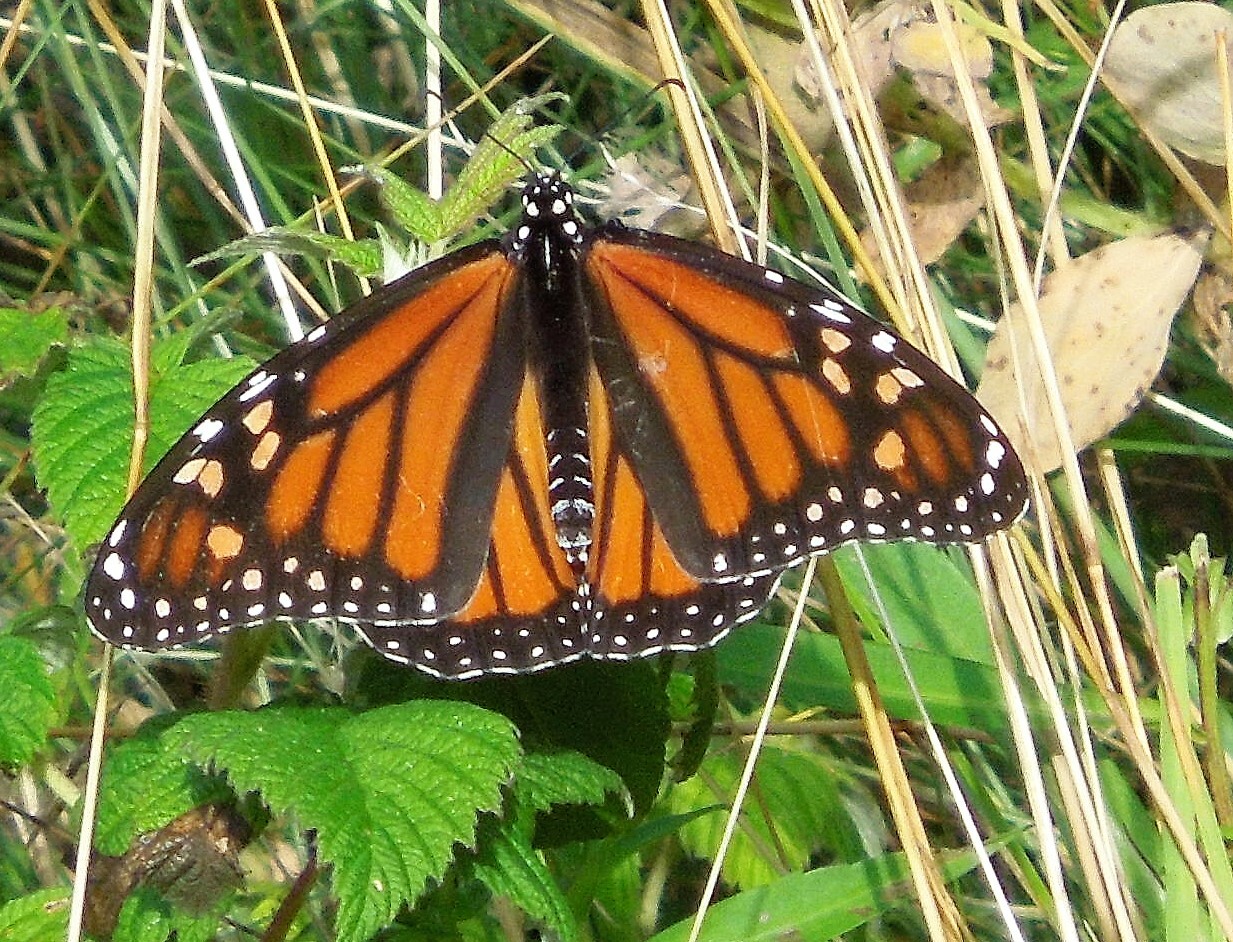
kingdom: Animalia
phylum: Arthropoda
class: Insecta
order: Lepidoptera
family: Nymphalidae
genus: Danaus
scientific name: Danaus plexippus
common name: Monarch
